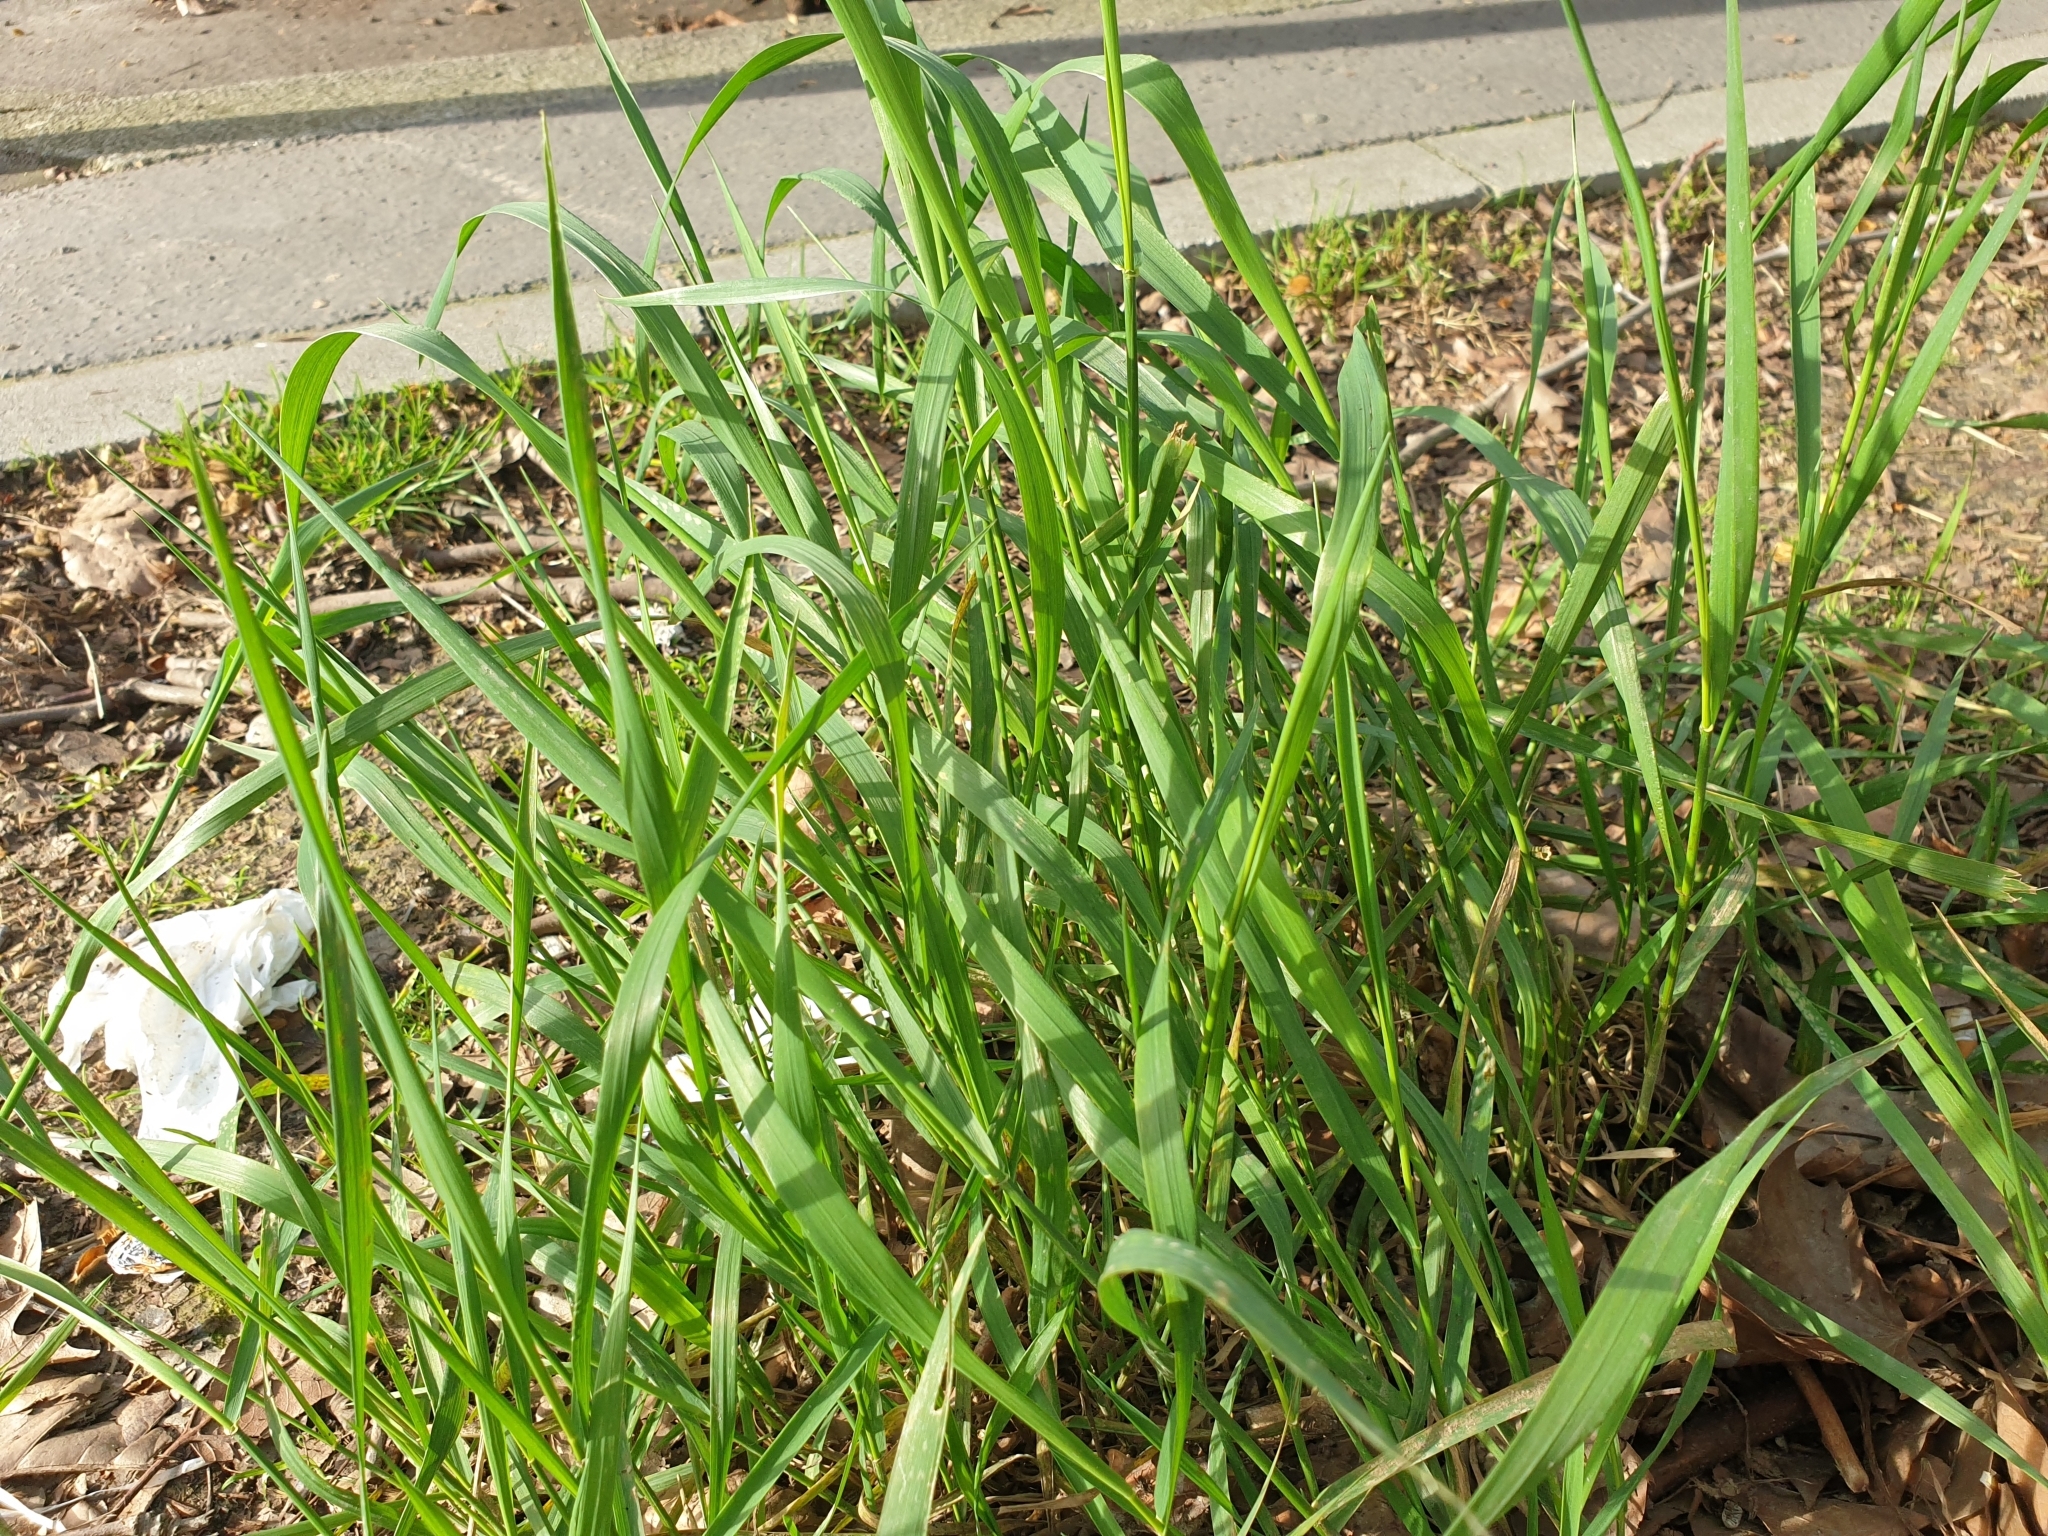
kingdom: Plantae
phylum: Tracheophyta
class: Liliopsida
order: Poales
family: Poaceae
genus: Elymus
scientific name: Elymus repens
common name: Quackgrass
